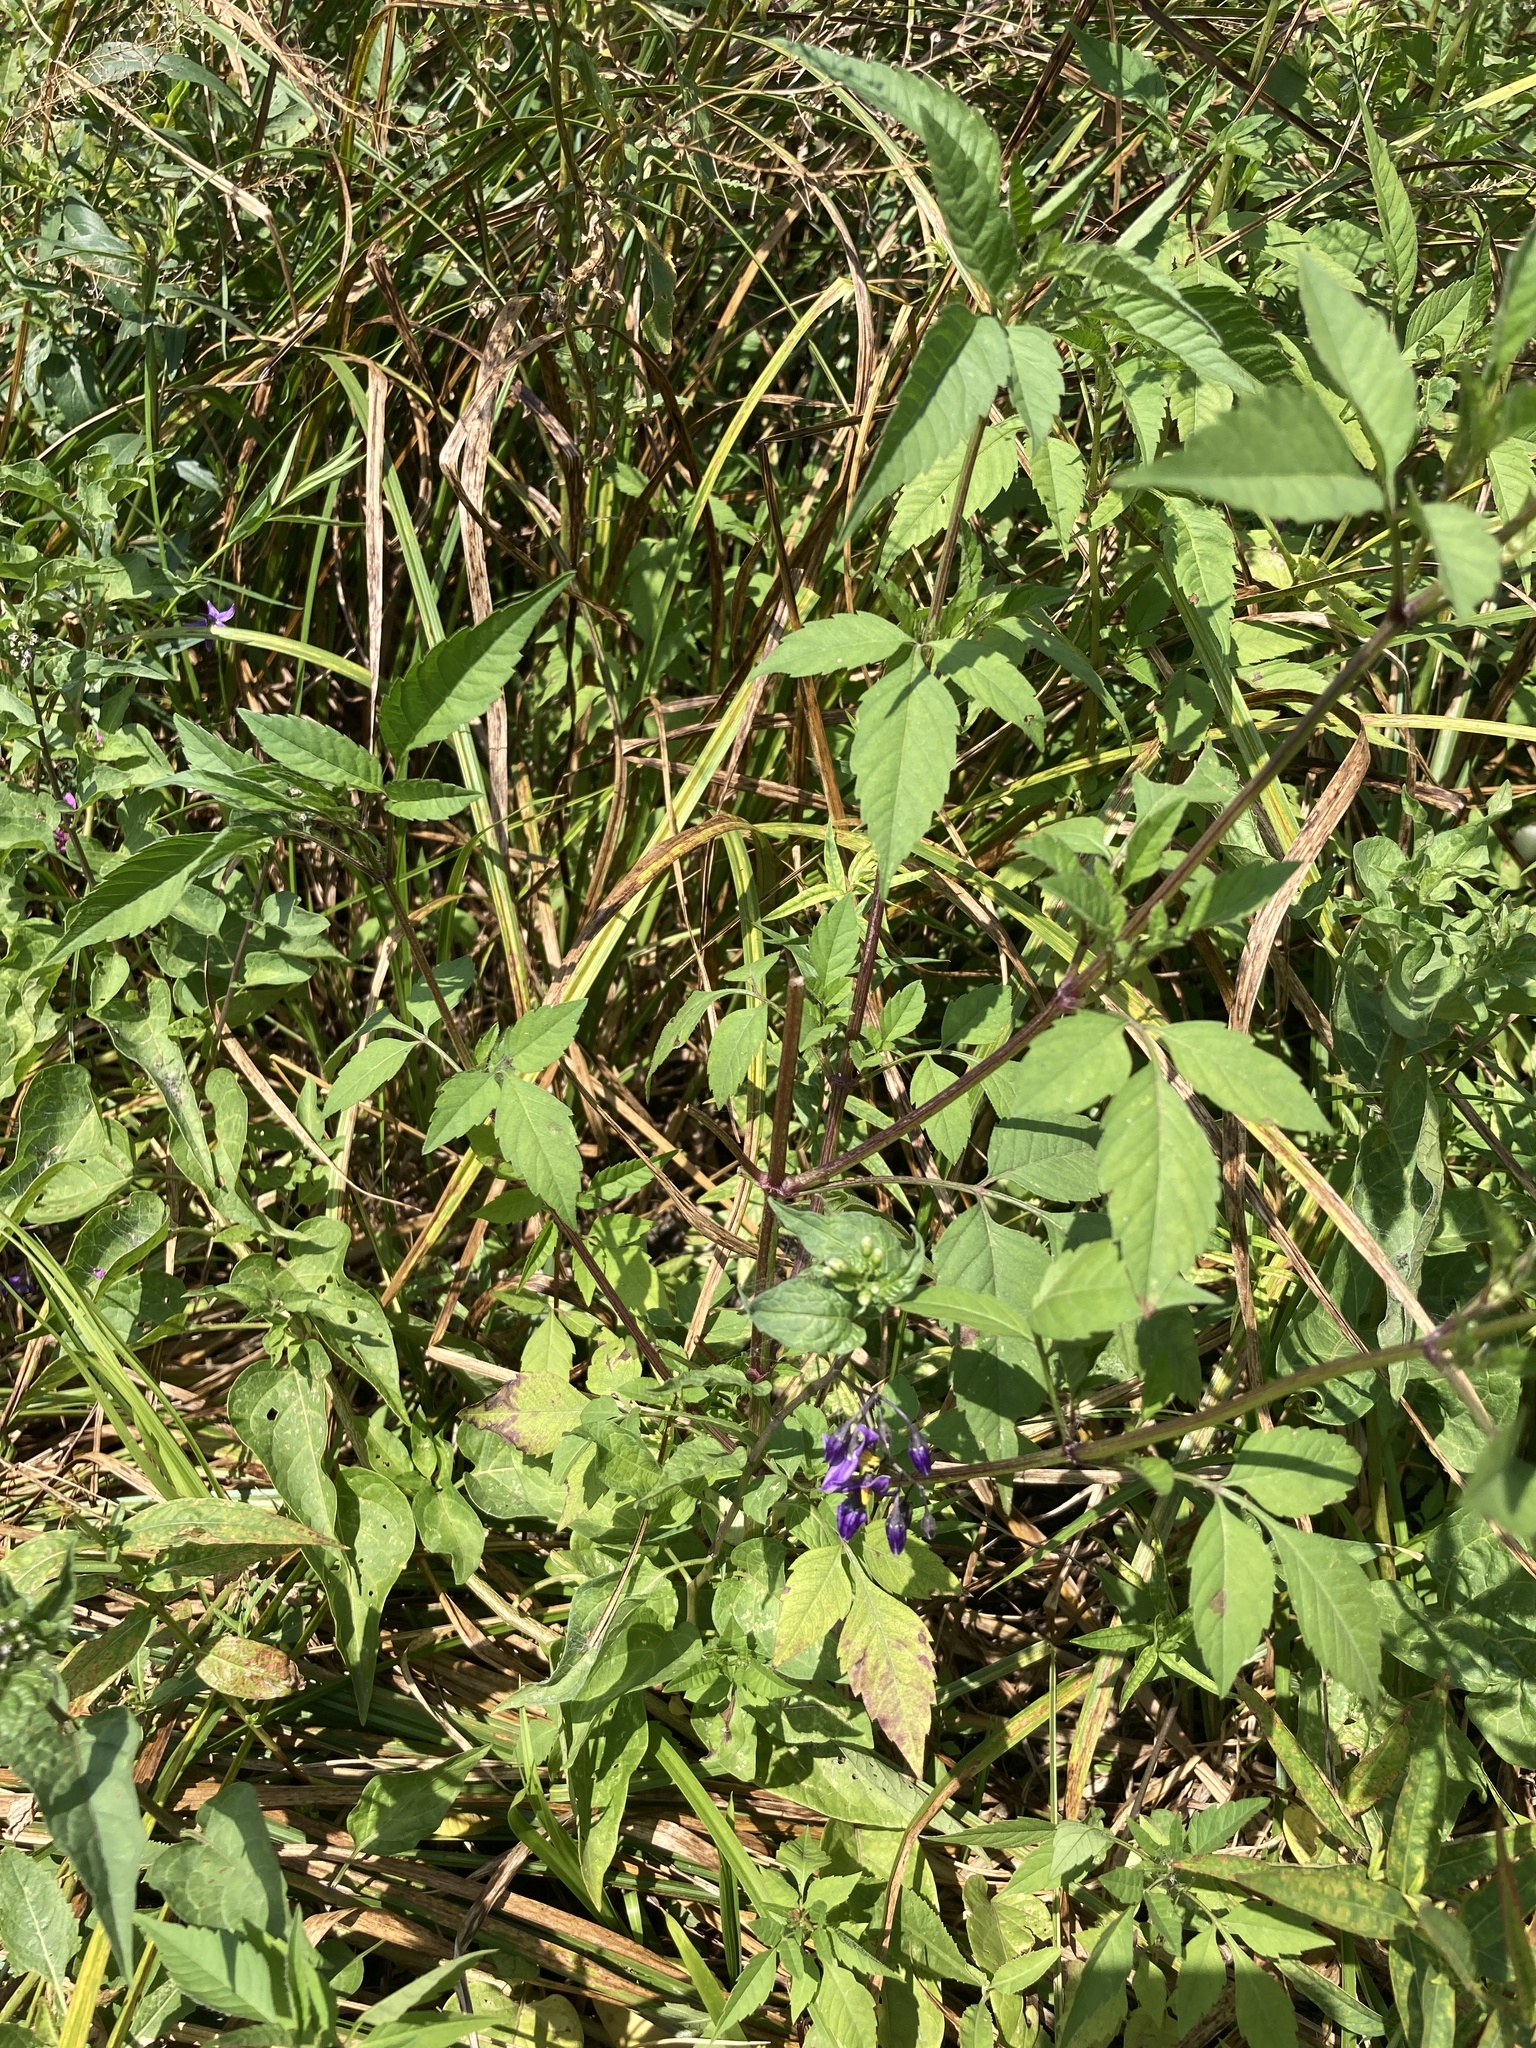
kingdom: Plantae
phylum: Tracheophyta
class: Magnoliopsida
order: Solanales
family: Solanaceae
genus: Solanum
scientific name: Solanum dulcamara
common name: Climbing nightshade
